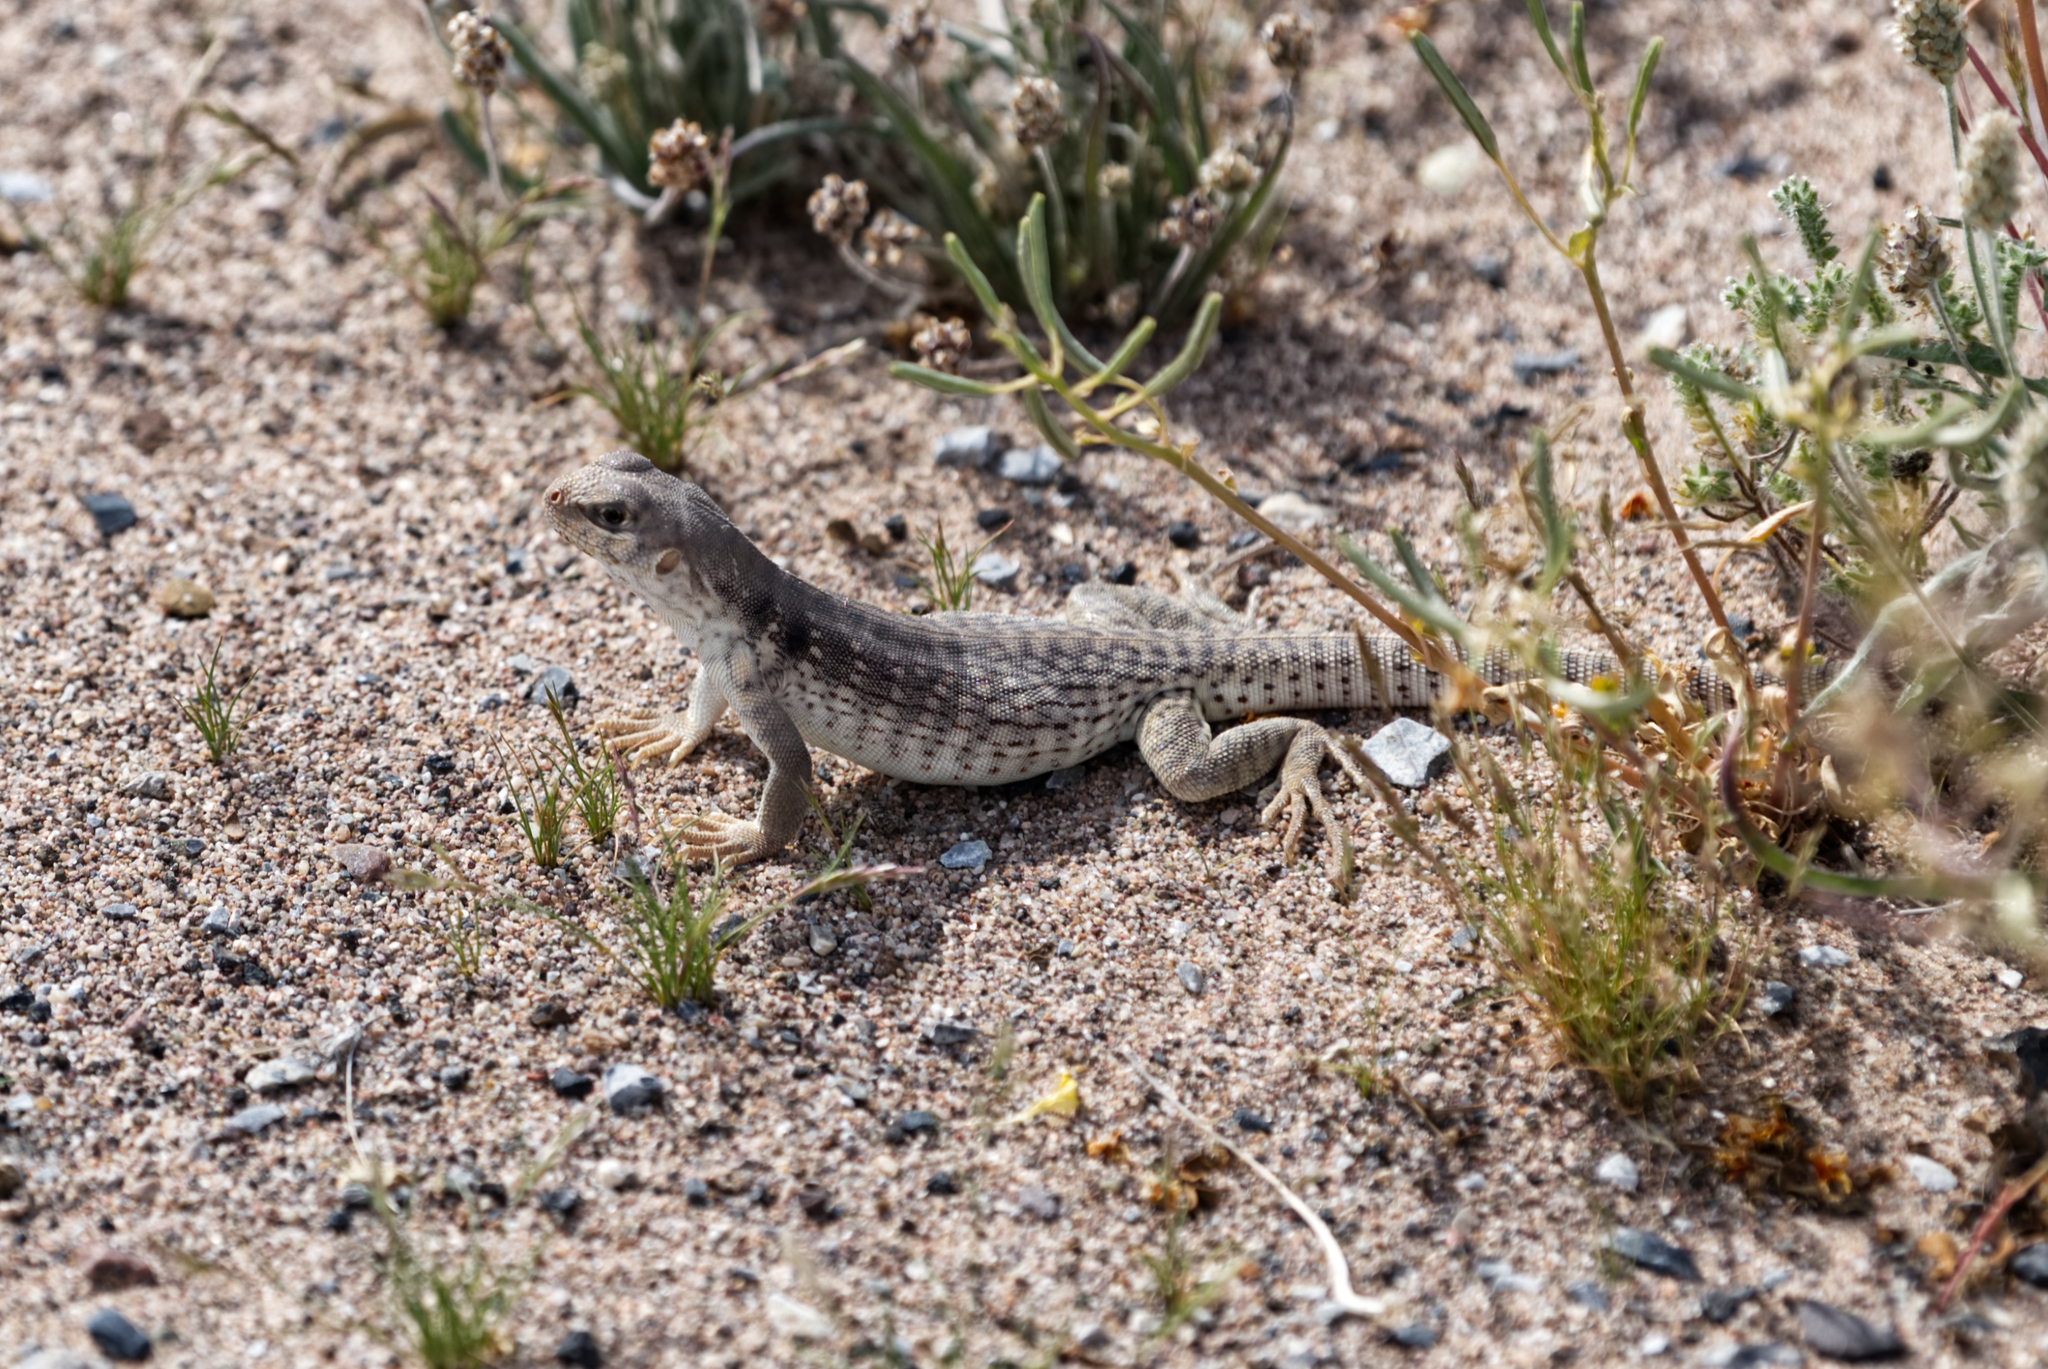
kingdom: Animalia
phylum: Chordata
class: Squamata
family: Iguanidae
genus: Dipsosaurus
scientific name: Dipsosaurus dorsalis
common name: Desert iguana
